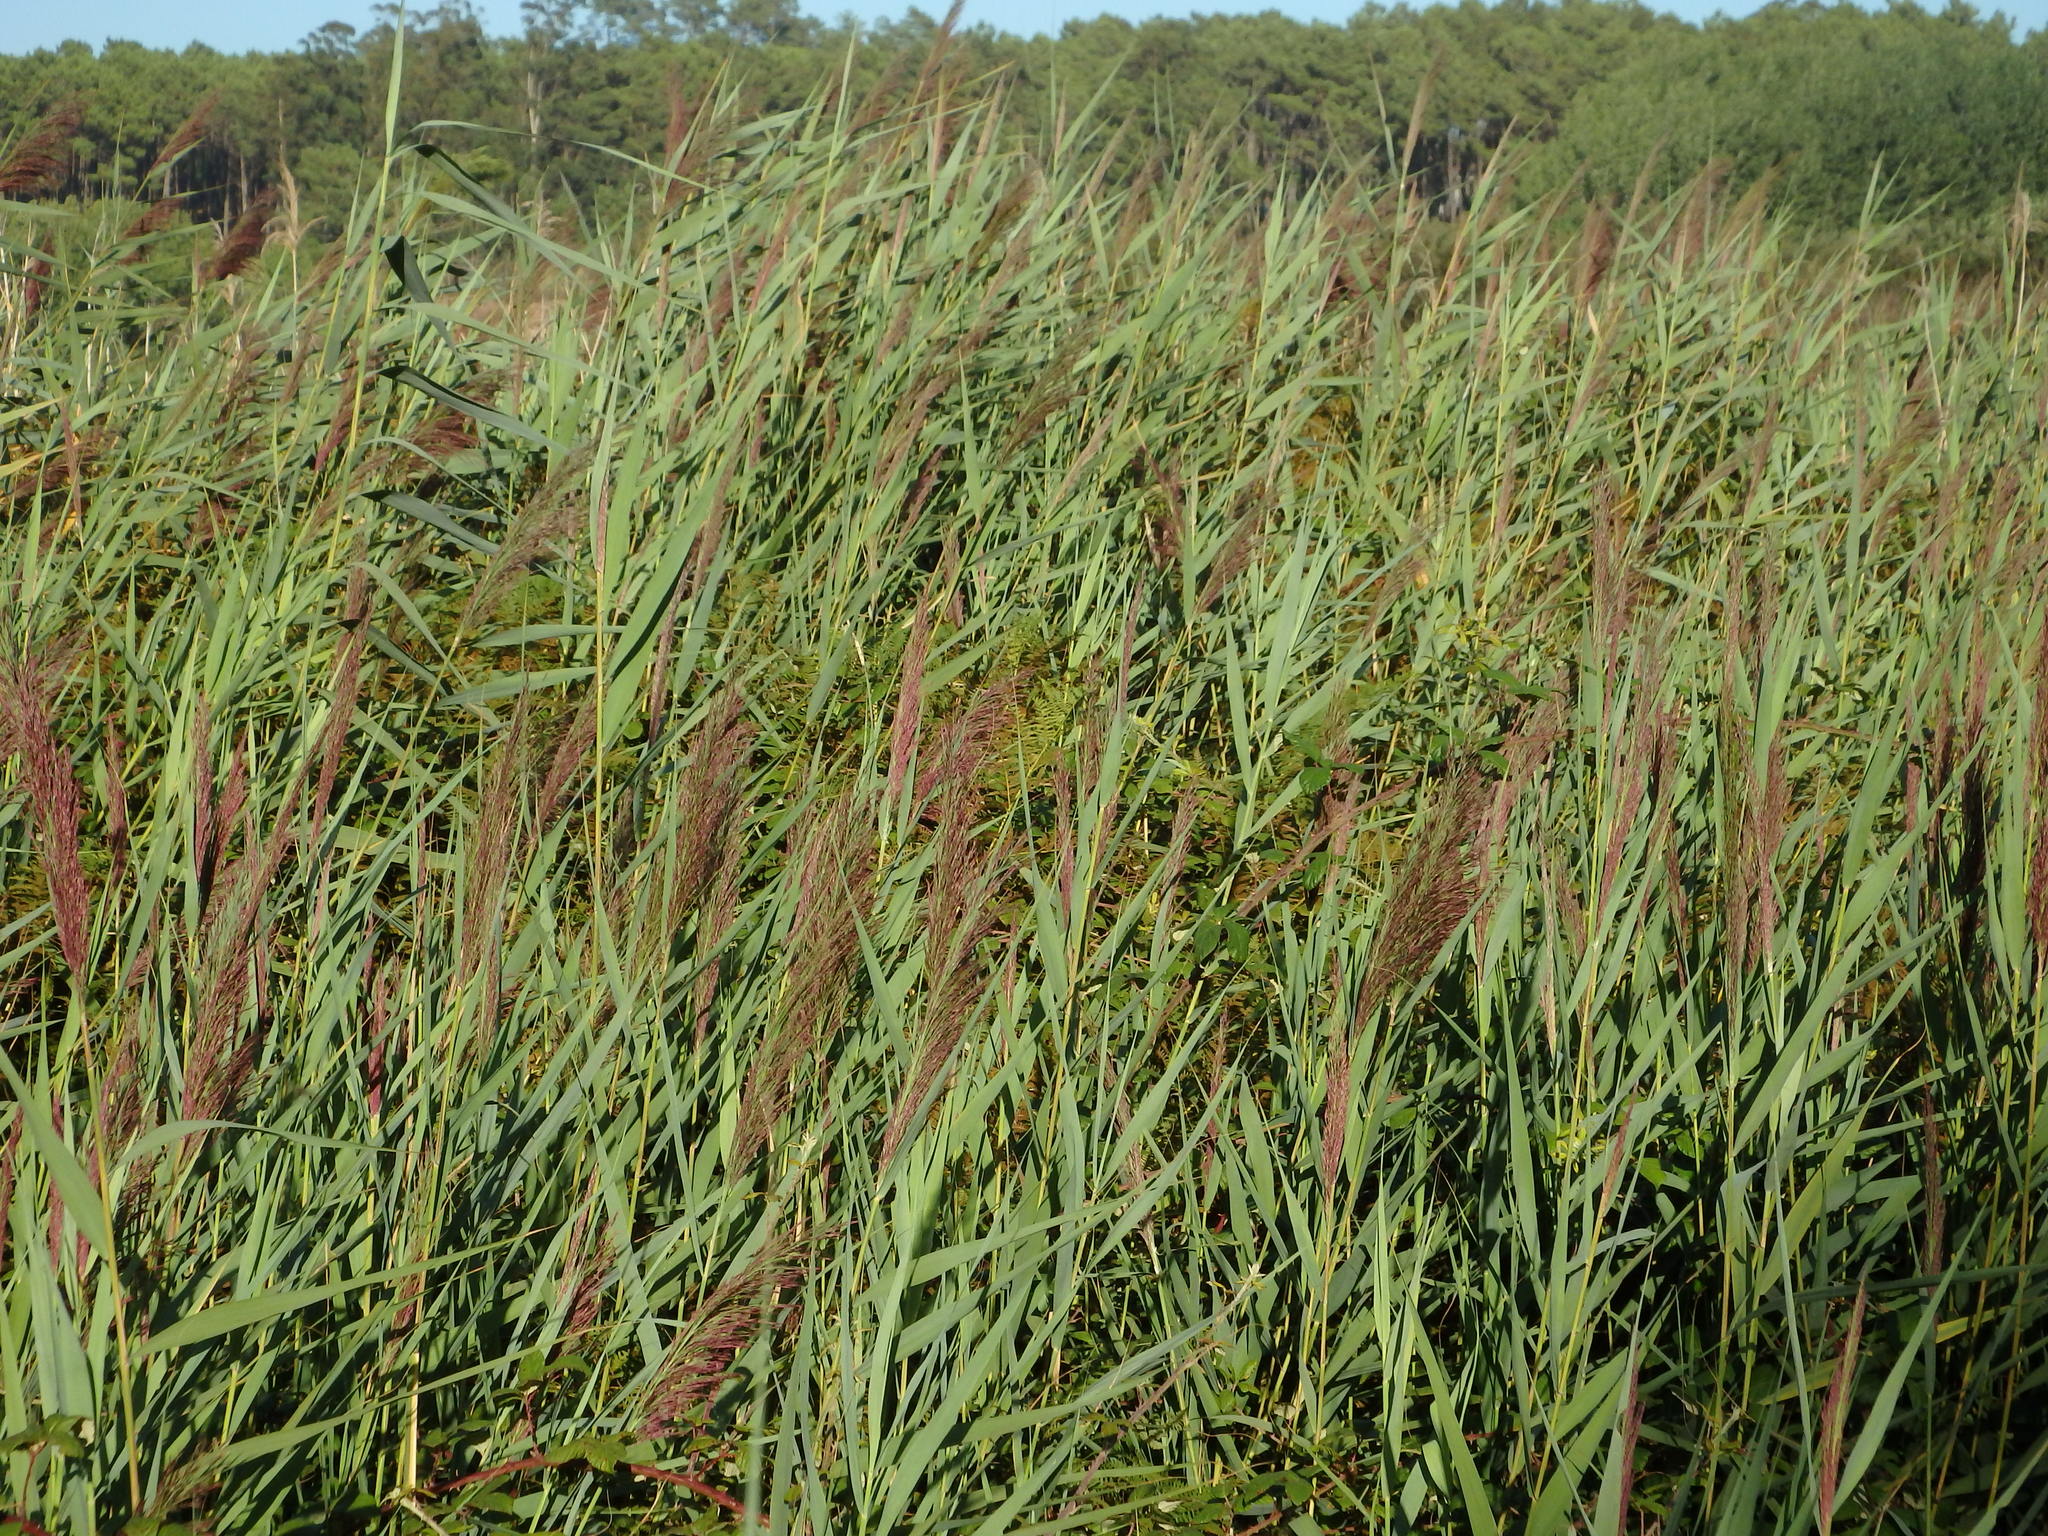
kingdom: Plantae
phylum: Tracheophyta
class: Liliopsida
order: Poales
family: Poaceae
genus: Phragmites
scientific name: Phragmites australis
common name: Common reed
